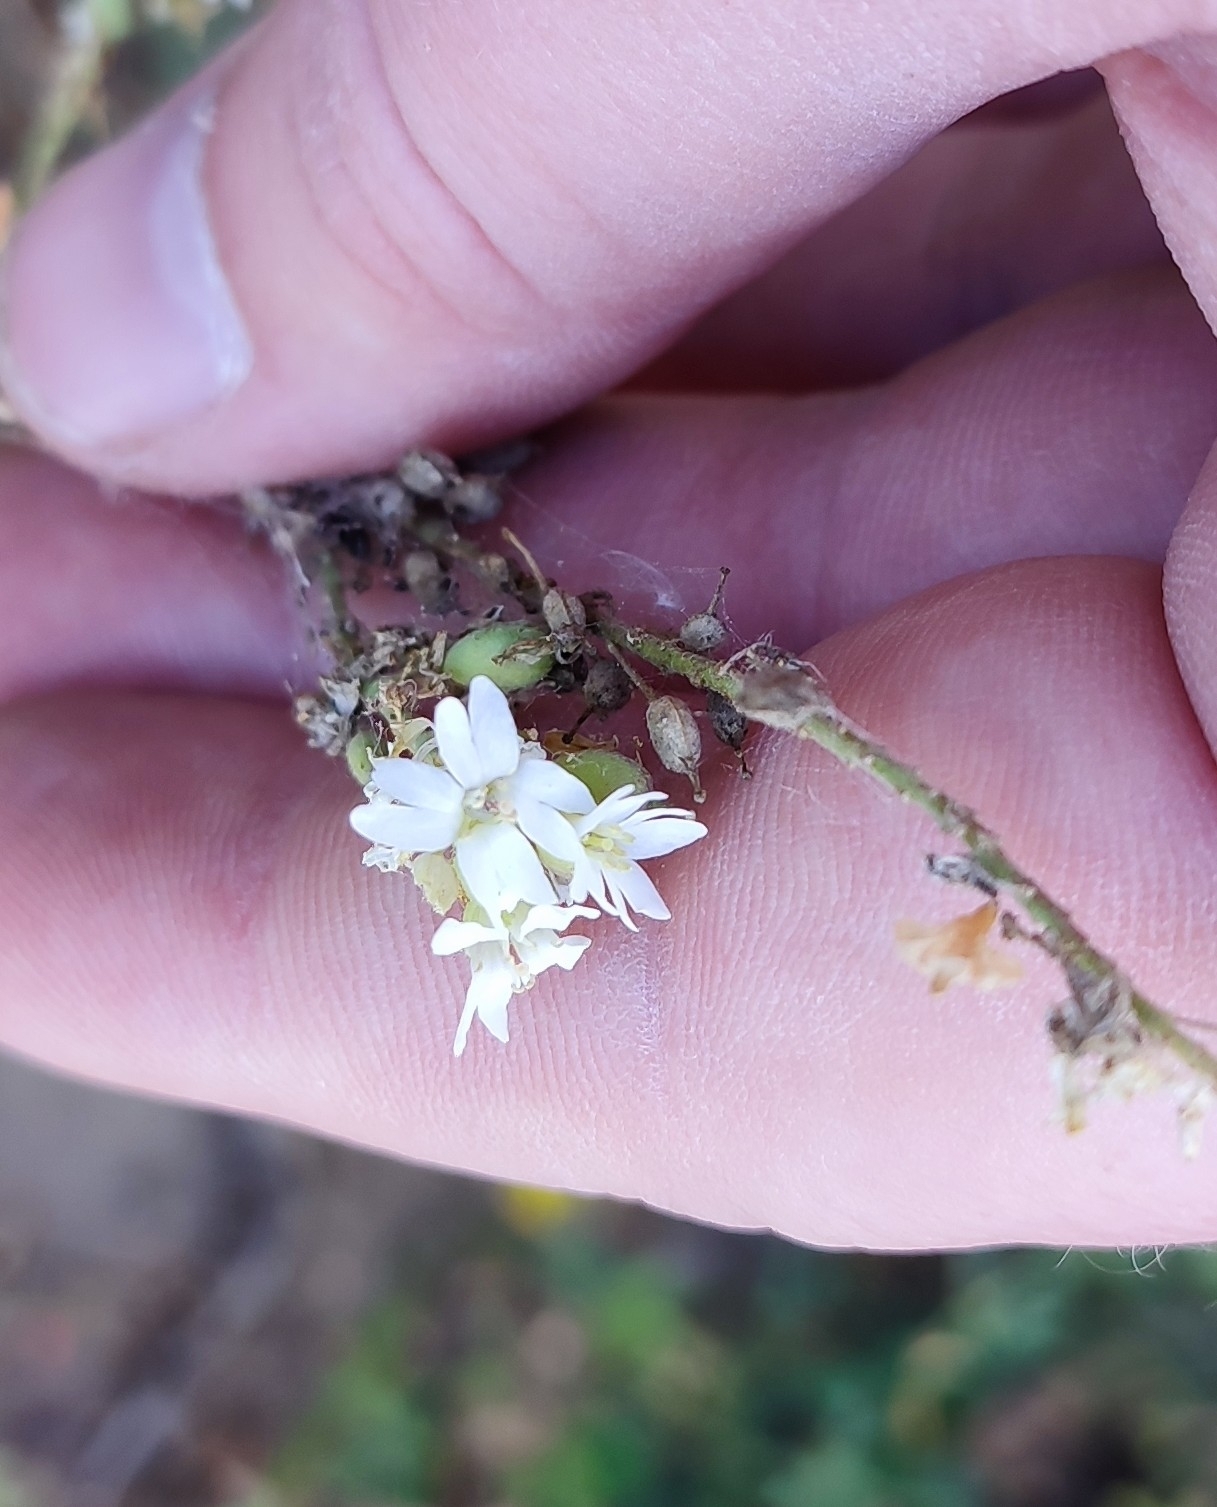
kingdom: Plantae
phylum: Tracheophyta
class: Magnoliopsida
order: Brassicales
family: Brassicaceae
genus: Berteroa
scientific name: Berteroa incana
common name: Hoary alison
